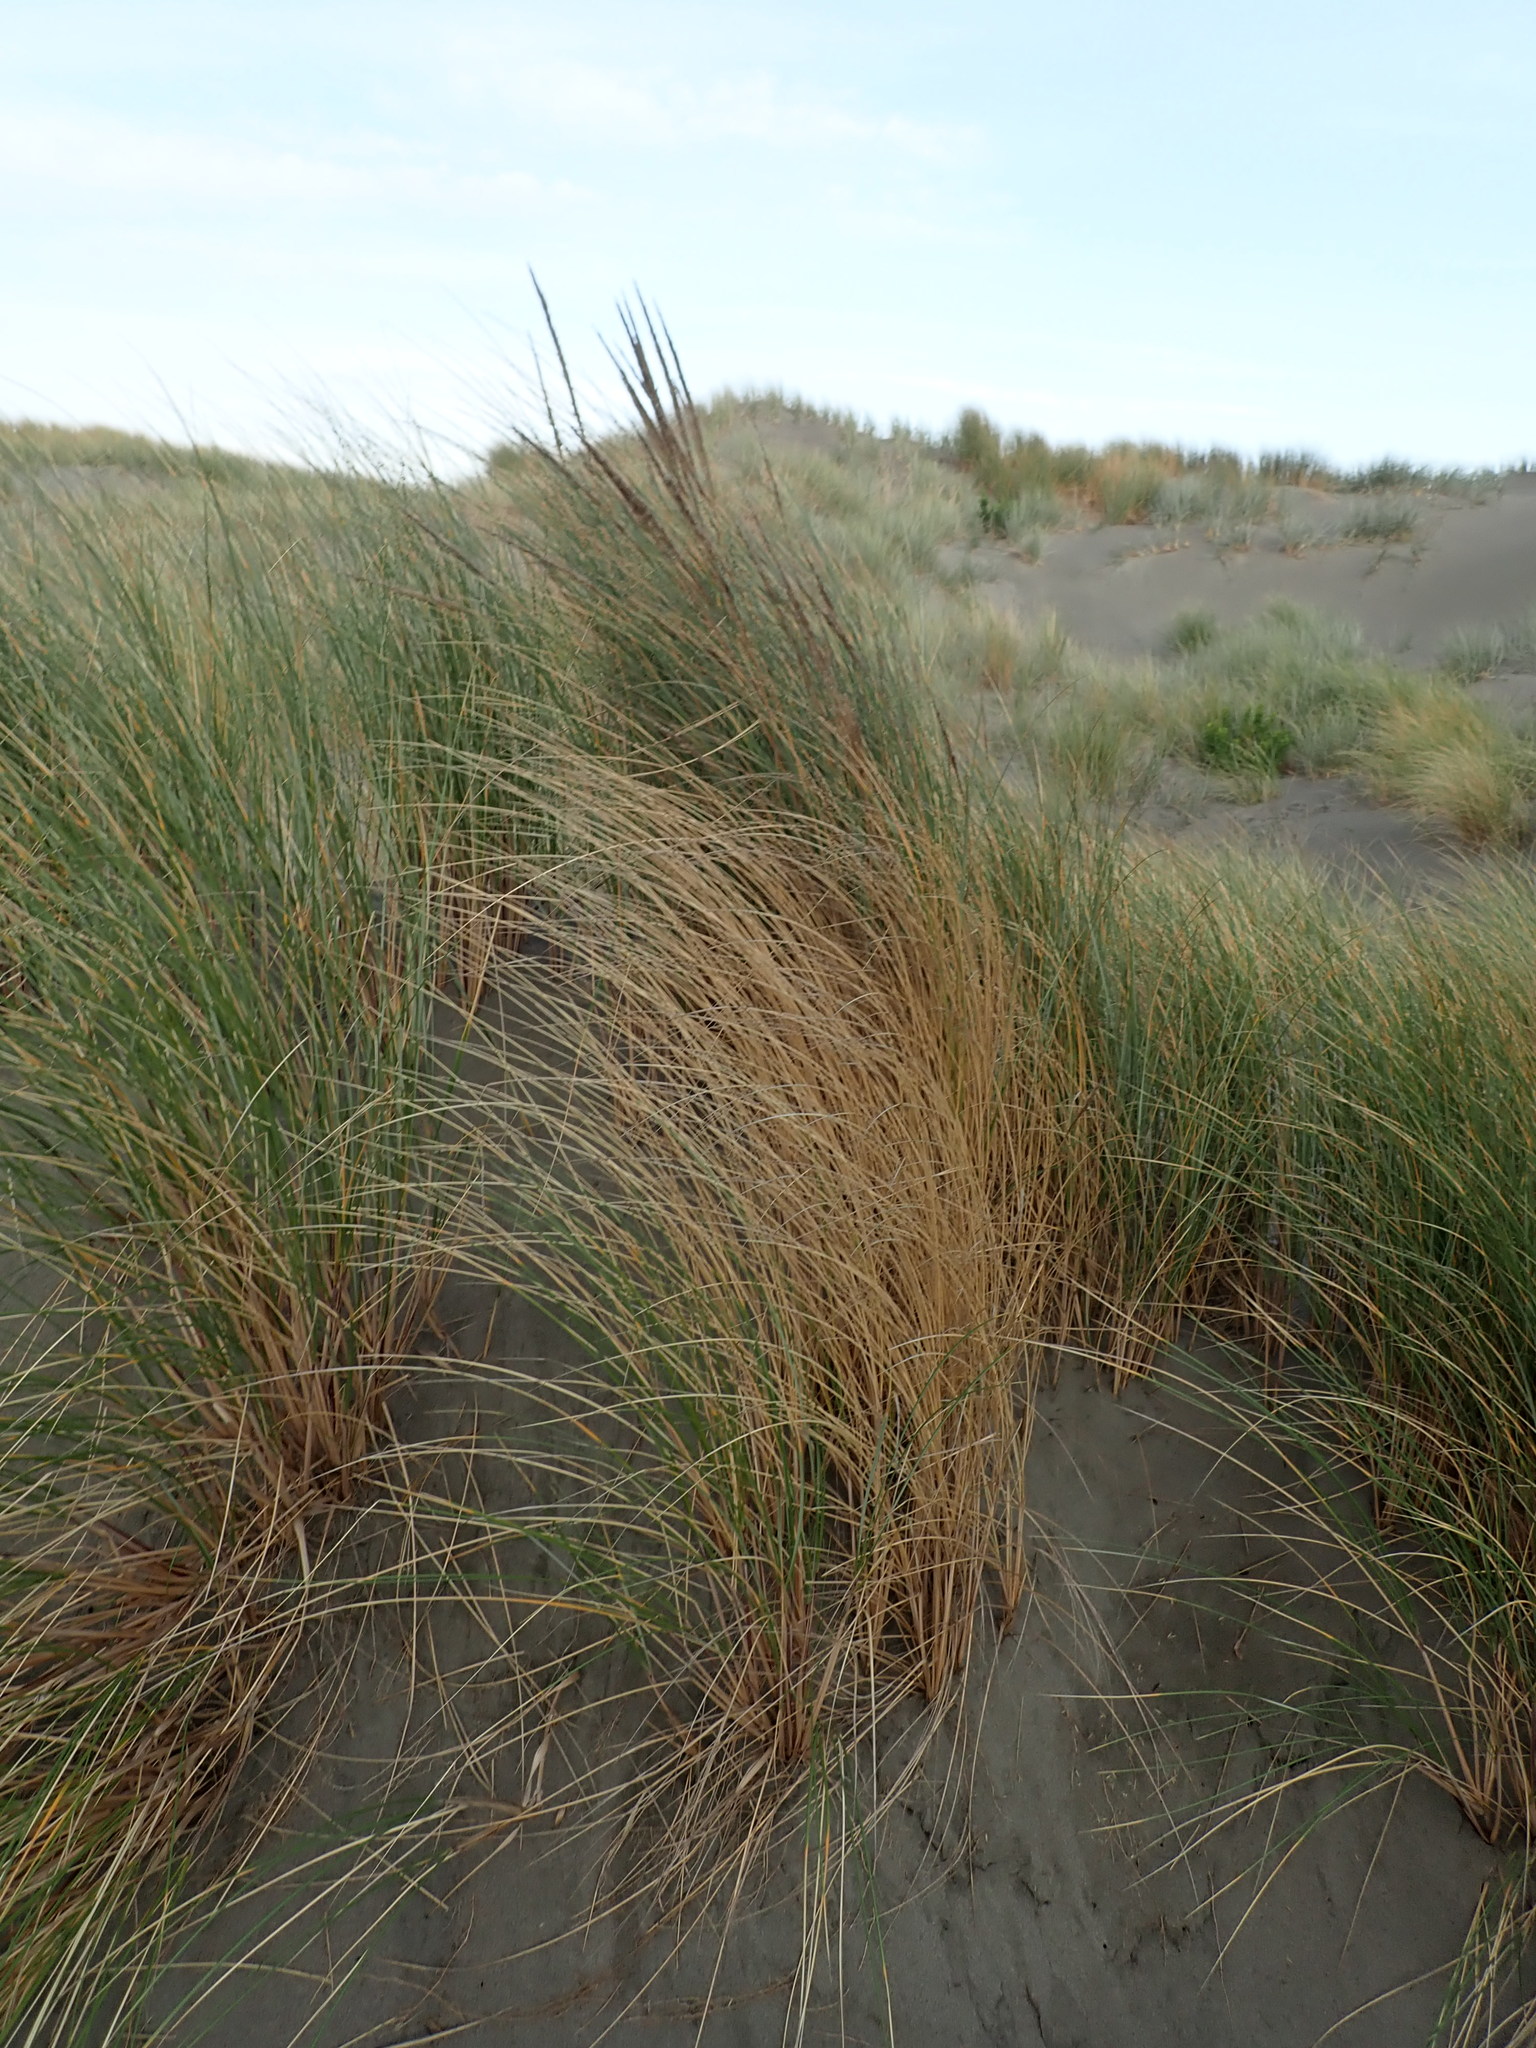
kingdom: Plantae
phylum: Tracheophyta
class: Liliopsida
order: Poales
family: Poaceae
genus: Calamagrostis
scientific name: Calamagrostis arenaria
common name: European beachgrass
